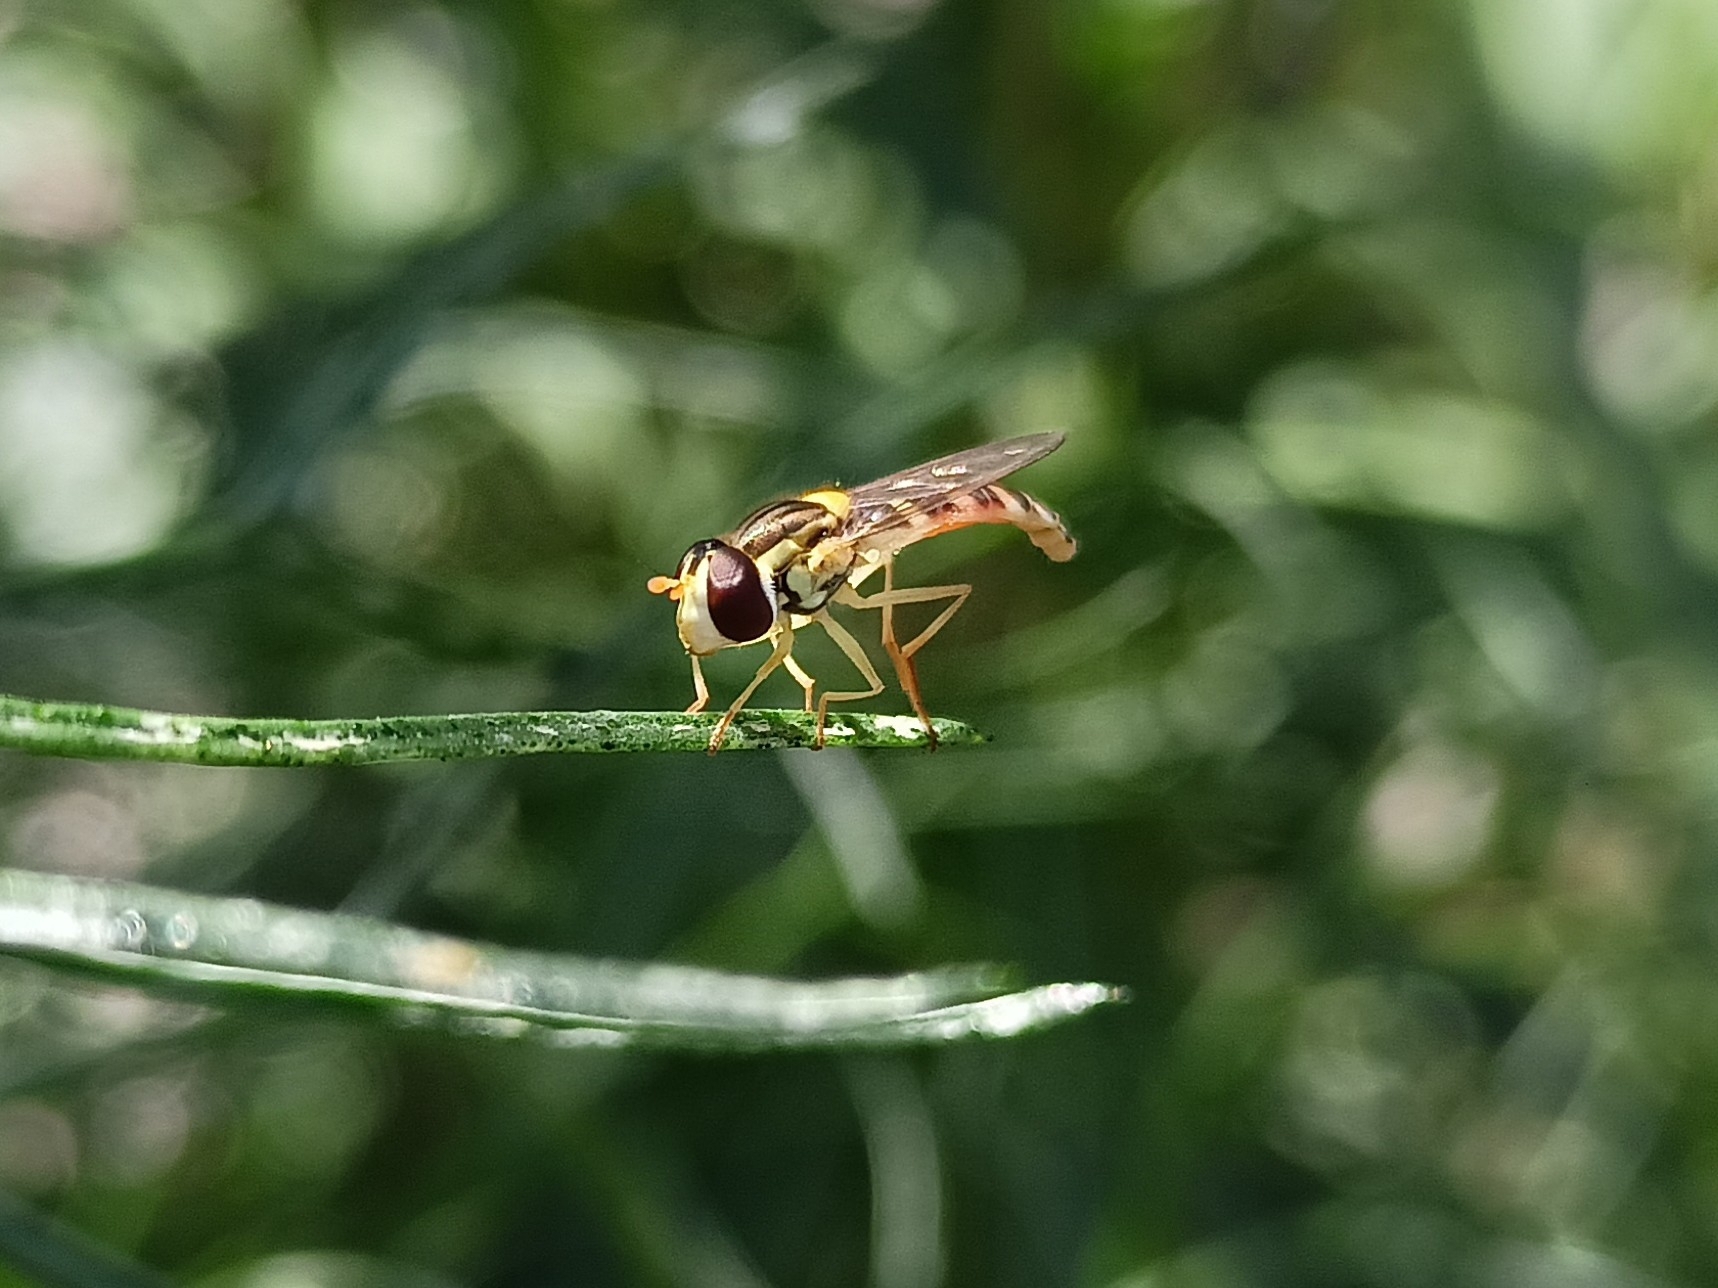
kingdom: Animalia
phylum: Arthropoda
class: Insecta
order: Diptera
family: Syrphidae
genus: Sphaerophoria
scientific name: Sphaerophoria
